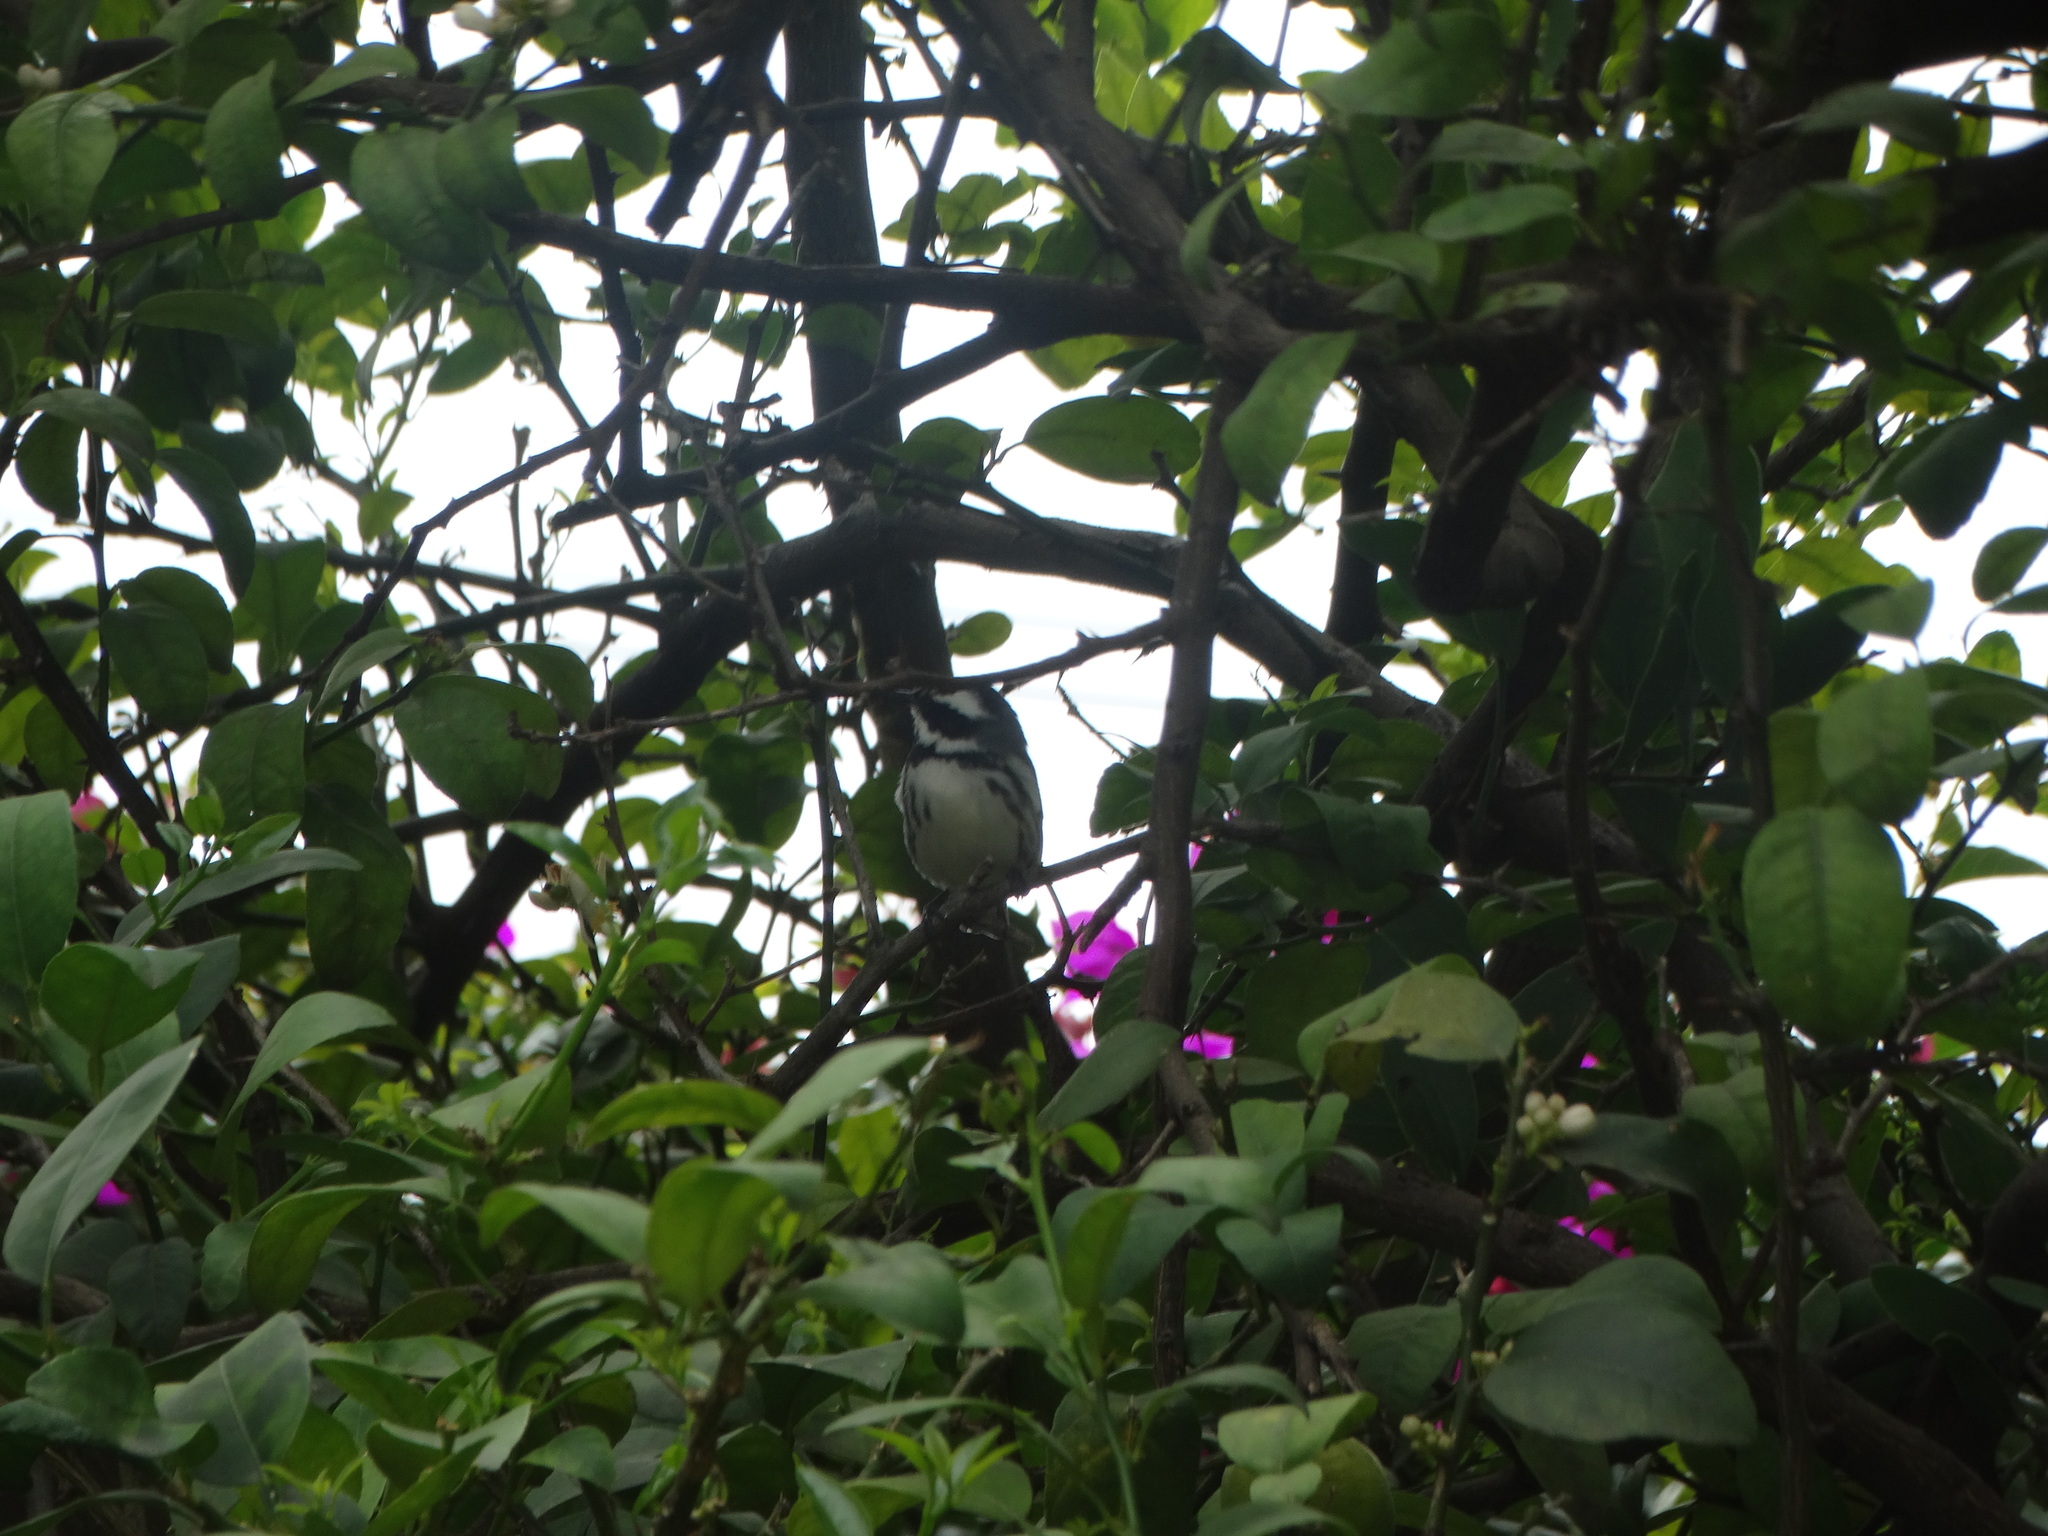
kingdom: Animalia
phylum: Chordata
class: Aves
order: Passeriformes
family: Parulidae
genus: Setophaga
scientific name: Setophaga nigrescens
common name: Black-throated gray warbler
